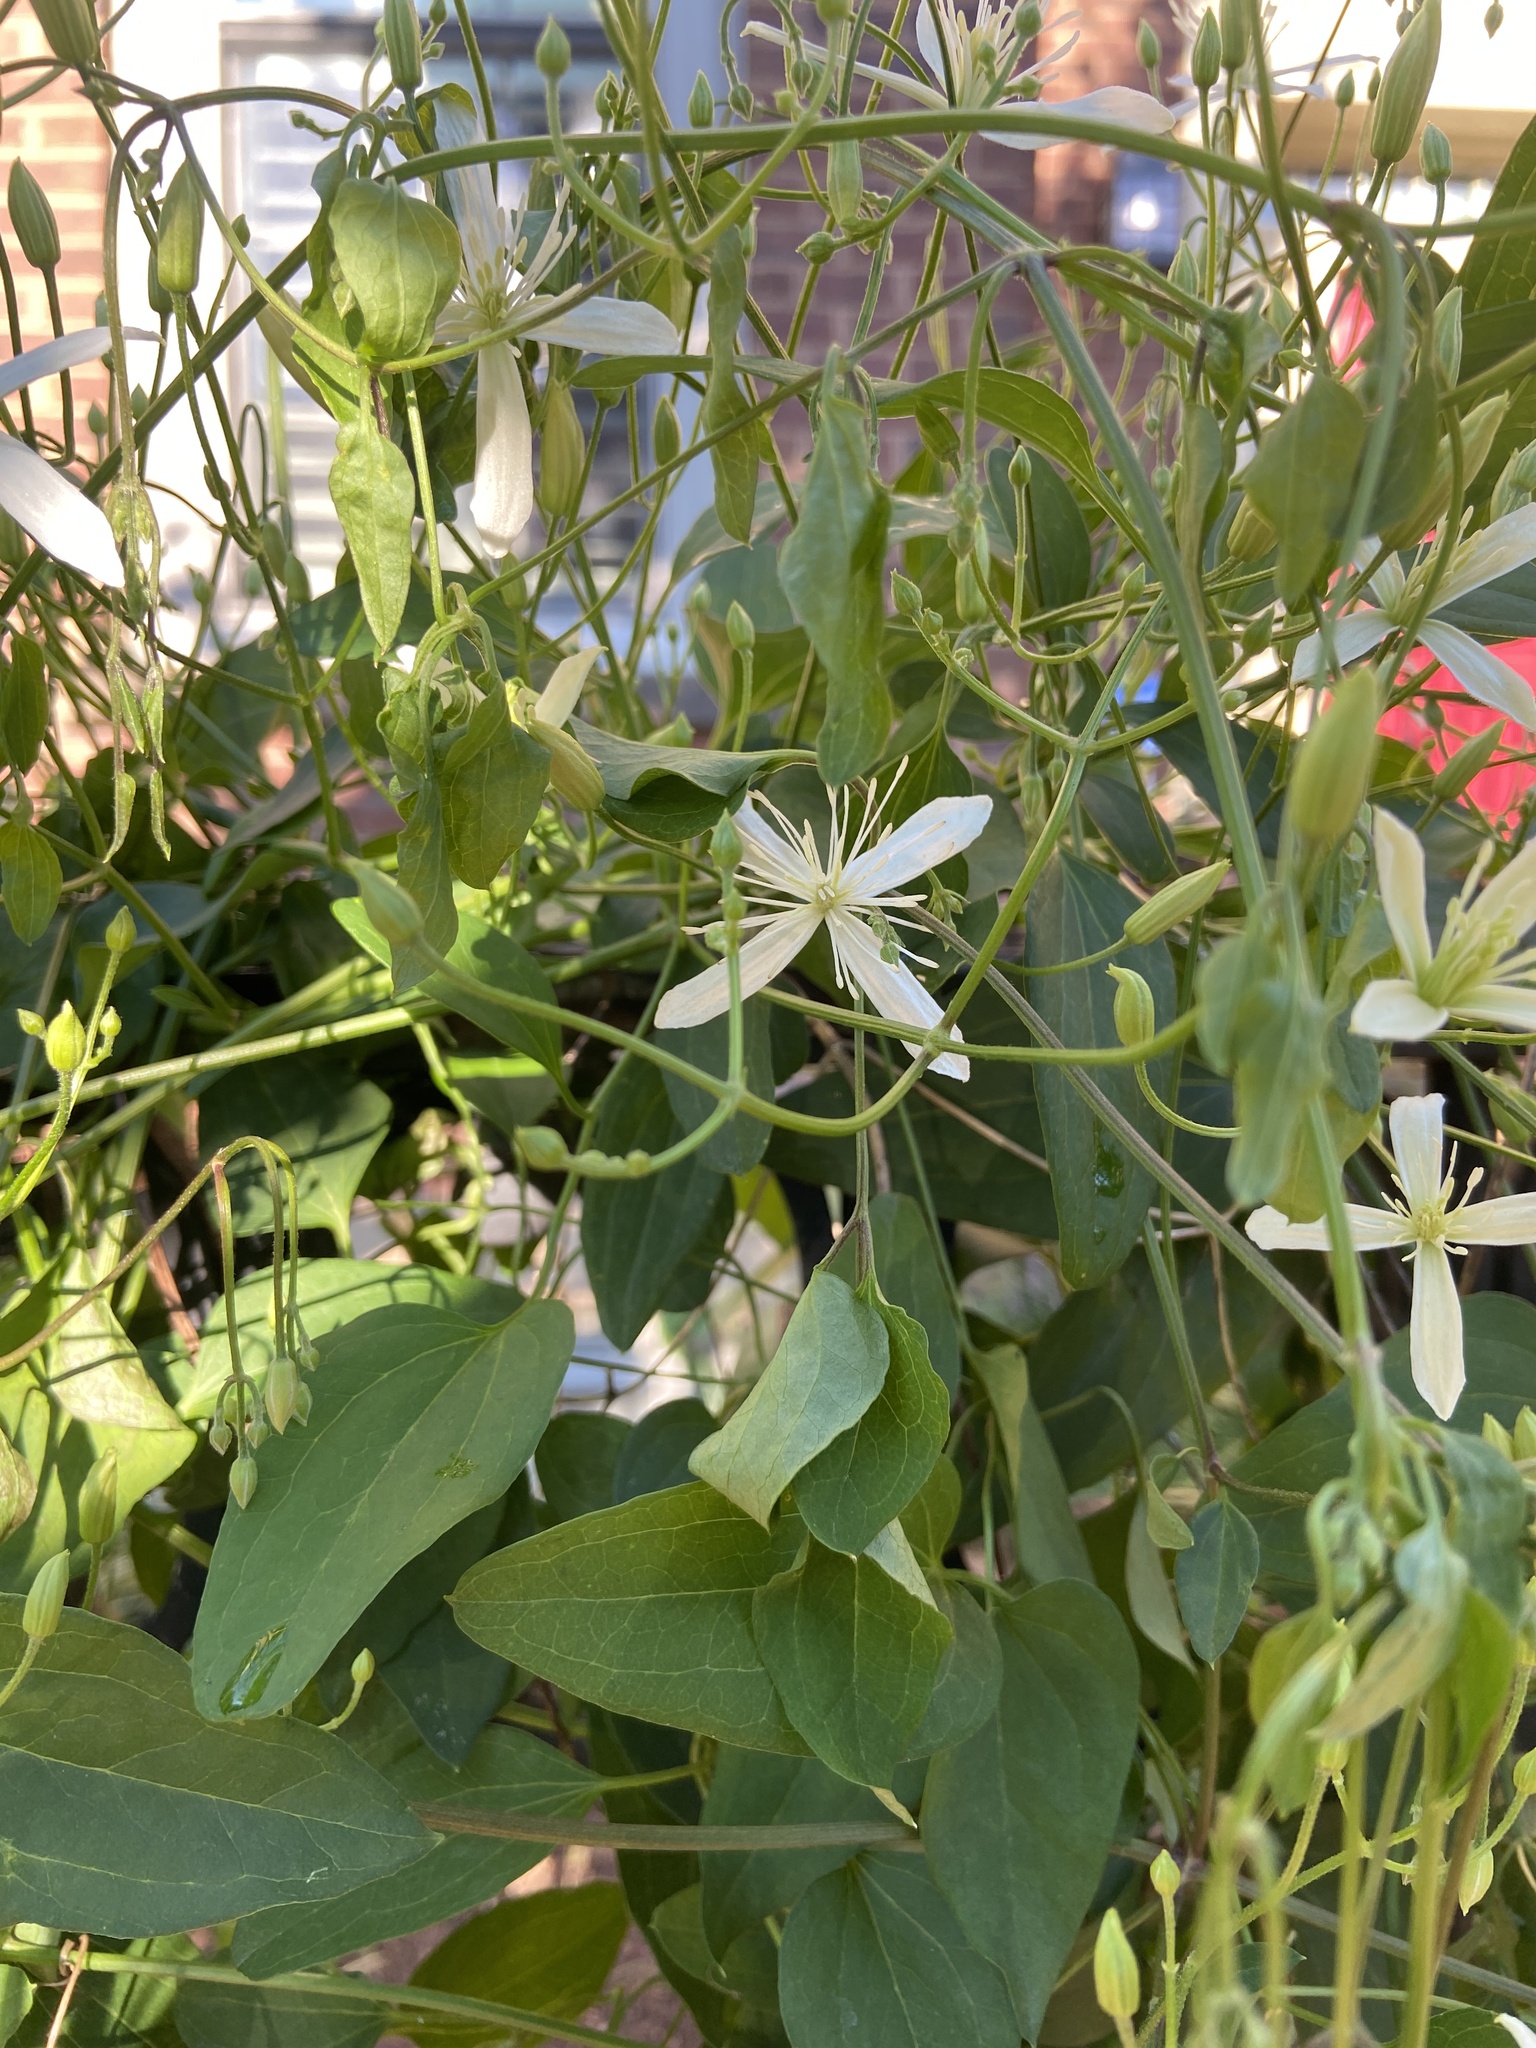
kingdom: Plantae
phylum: Tracheophyta
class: Magnoliopsida
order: Ranunculales
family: Ranunculaceae
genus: Clematis
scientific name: Clematis terniflora
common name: Sweet autumn clematis
